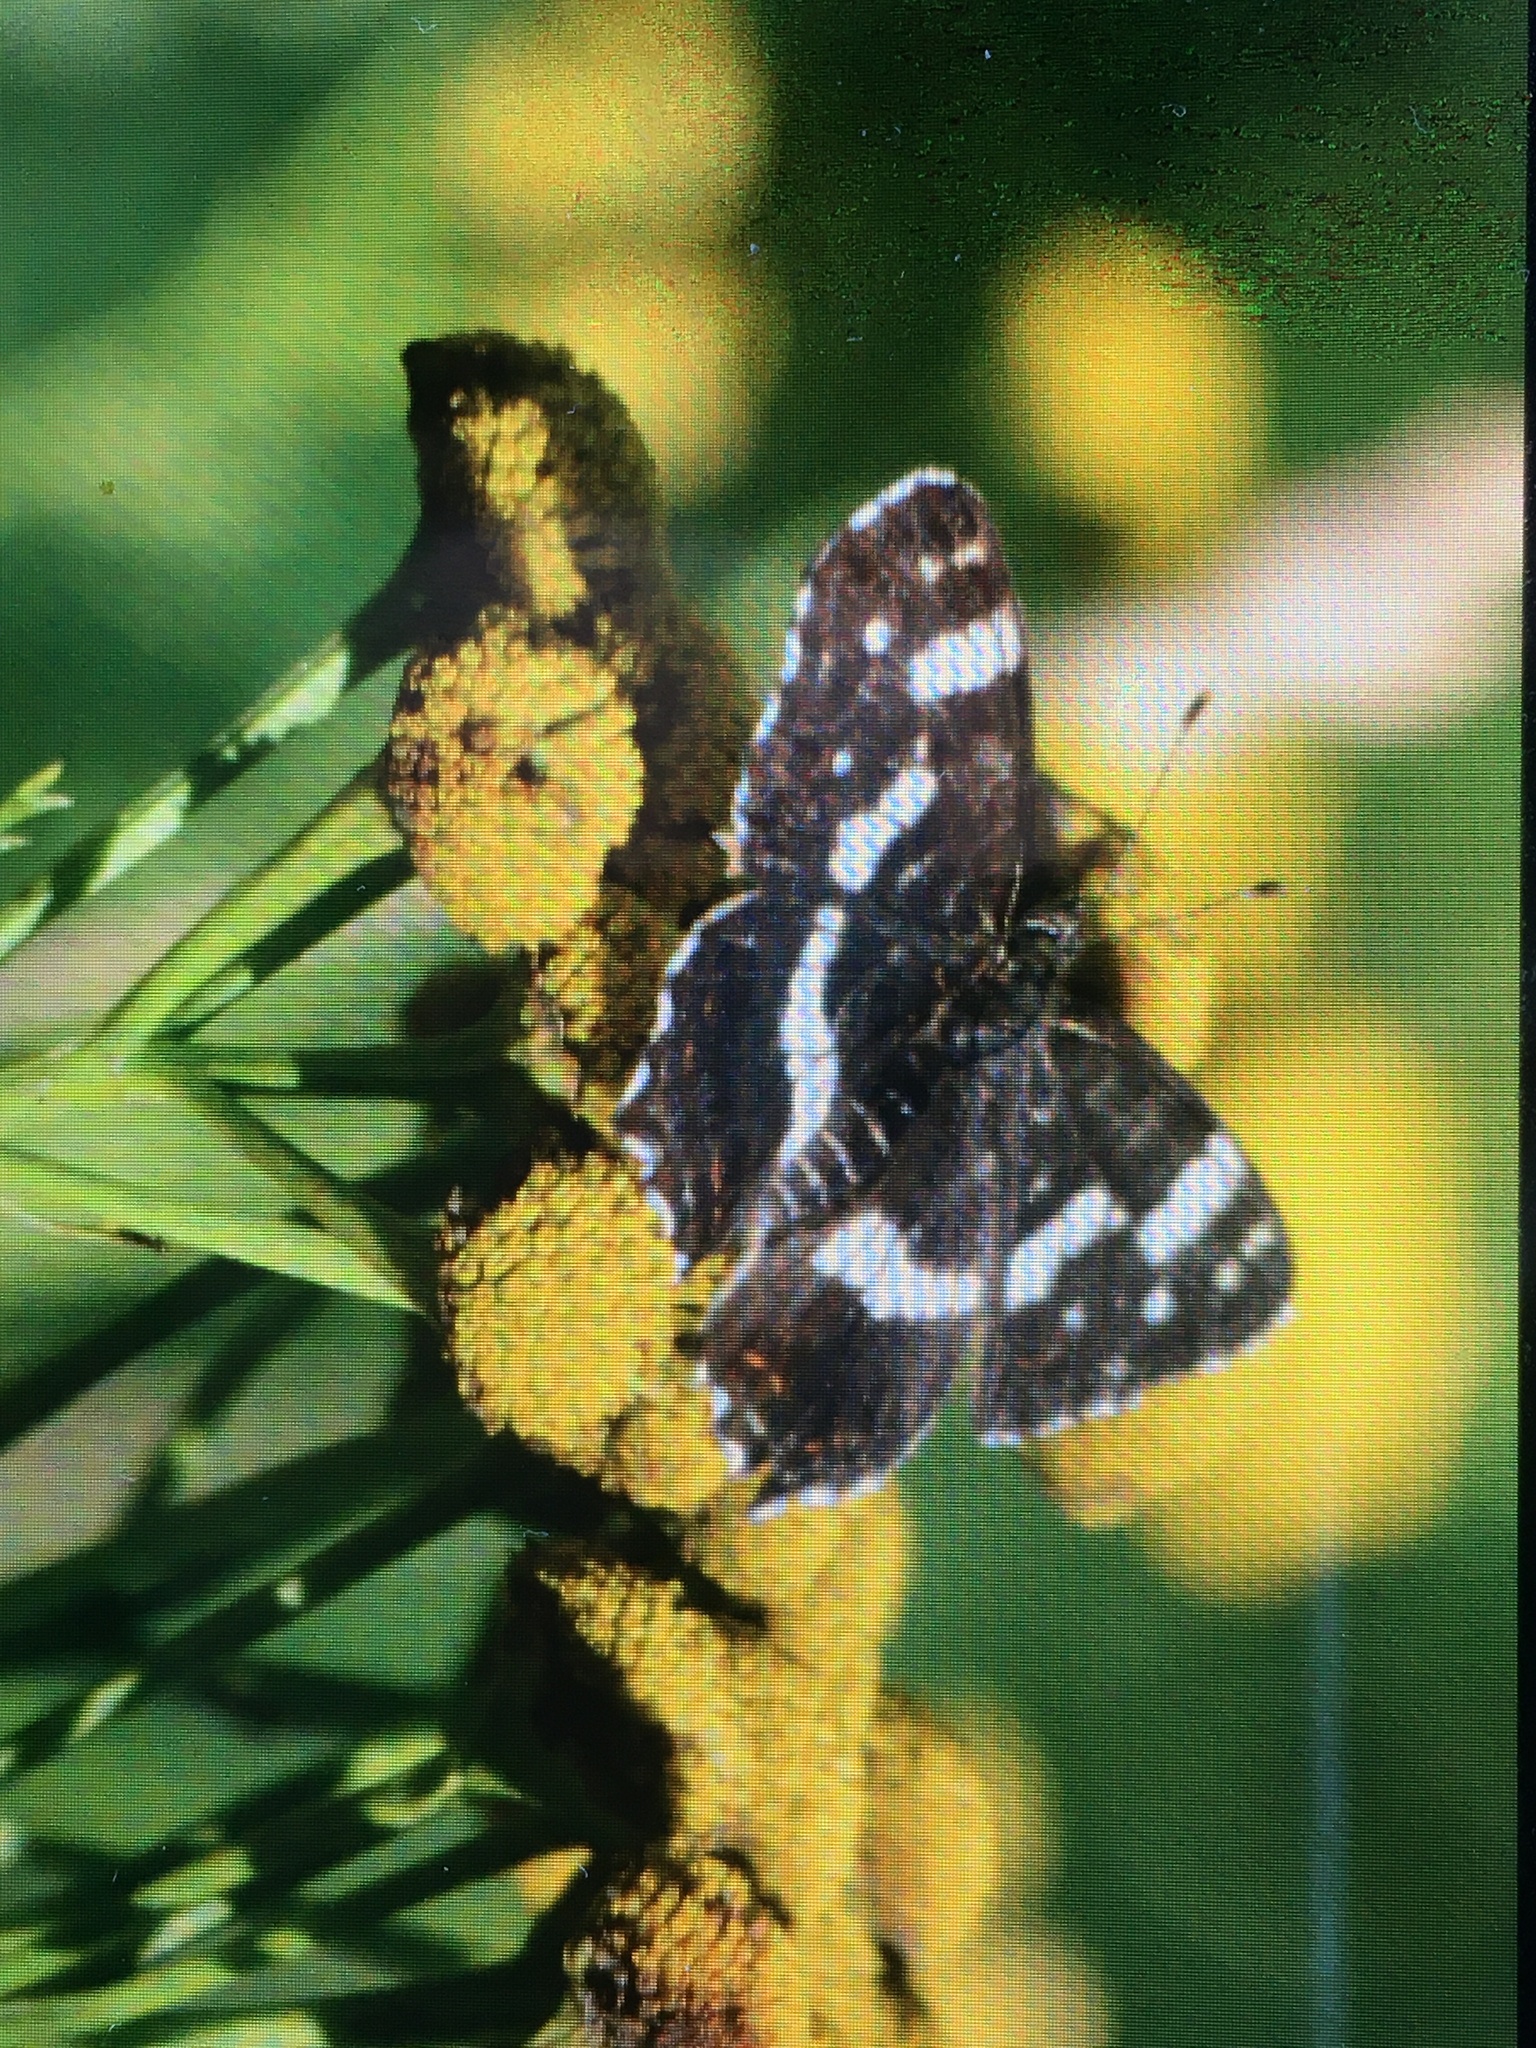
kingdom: Animalia
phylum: Arthropoda
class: Insecta
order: Lepidoptera
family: Nymphalidae
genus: Araschnia
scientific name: Araschnia levana
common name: Map butterfly
